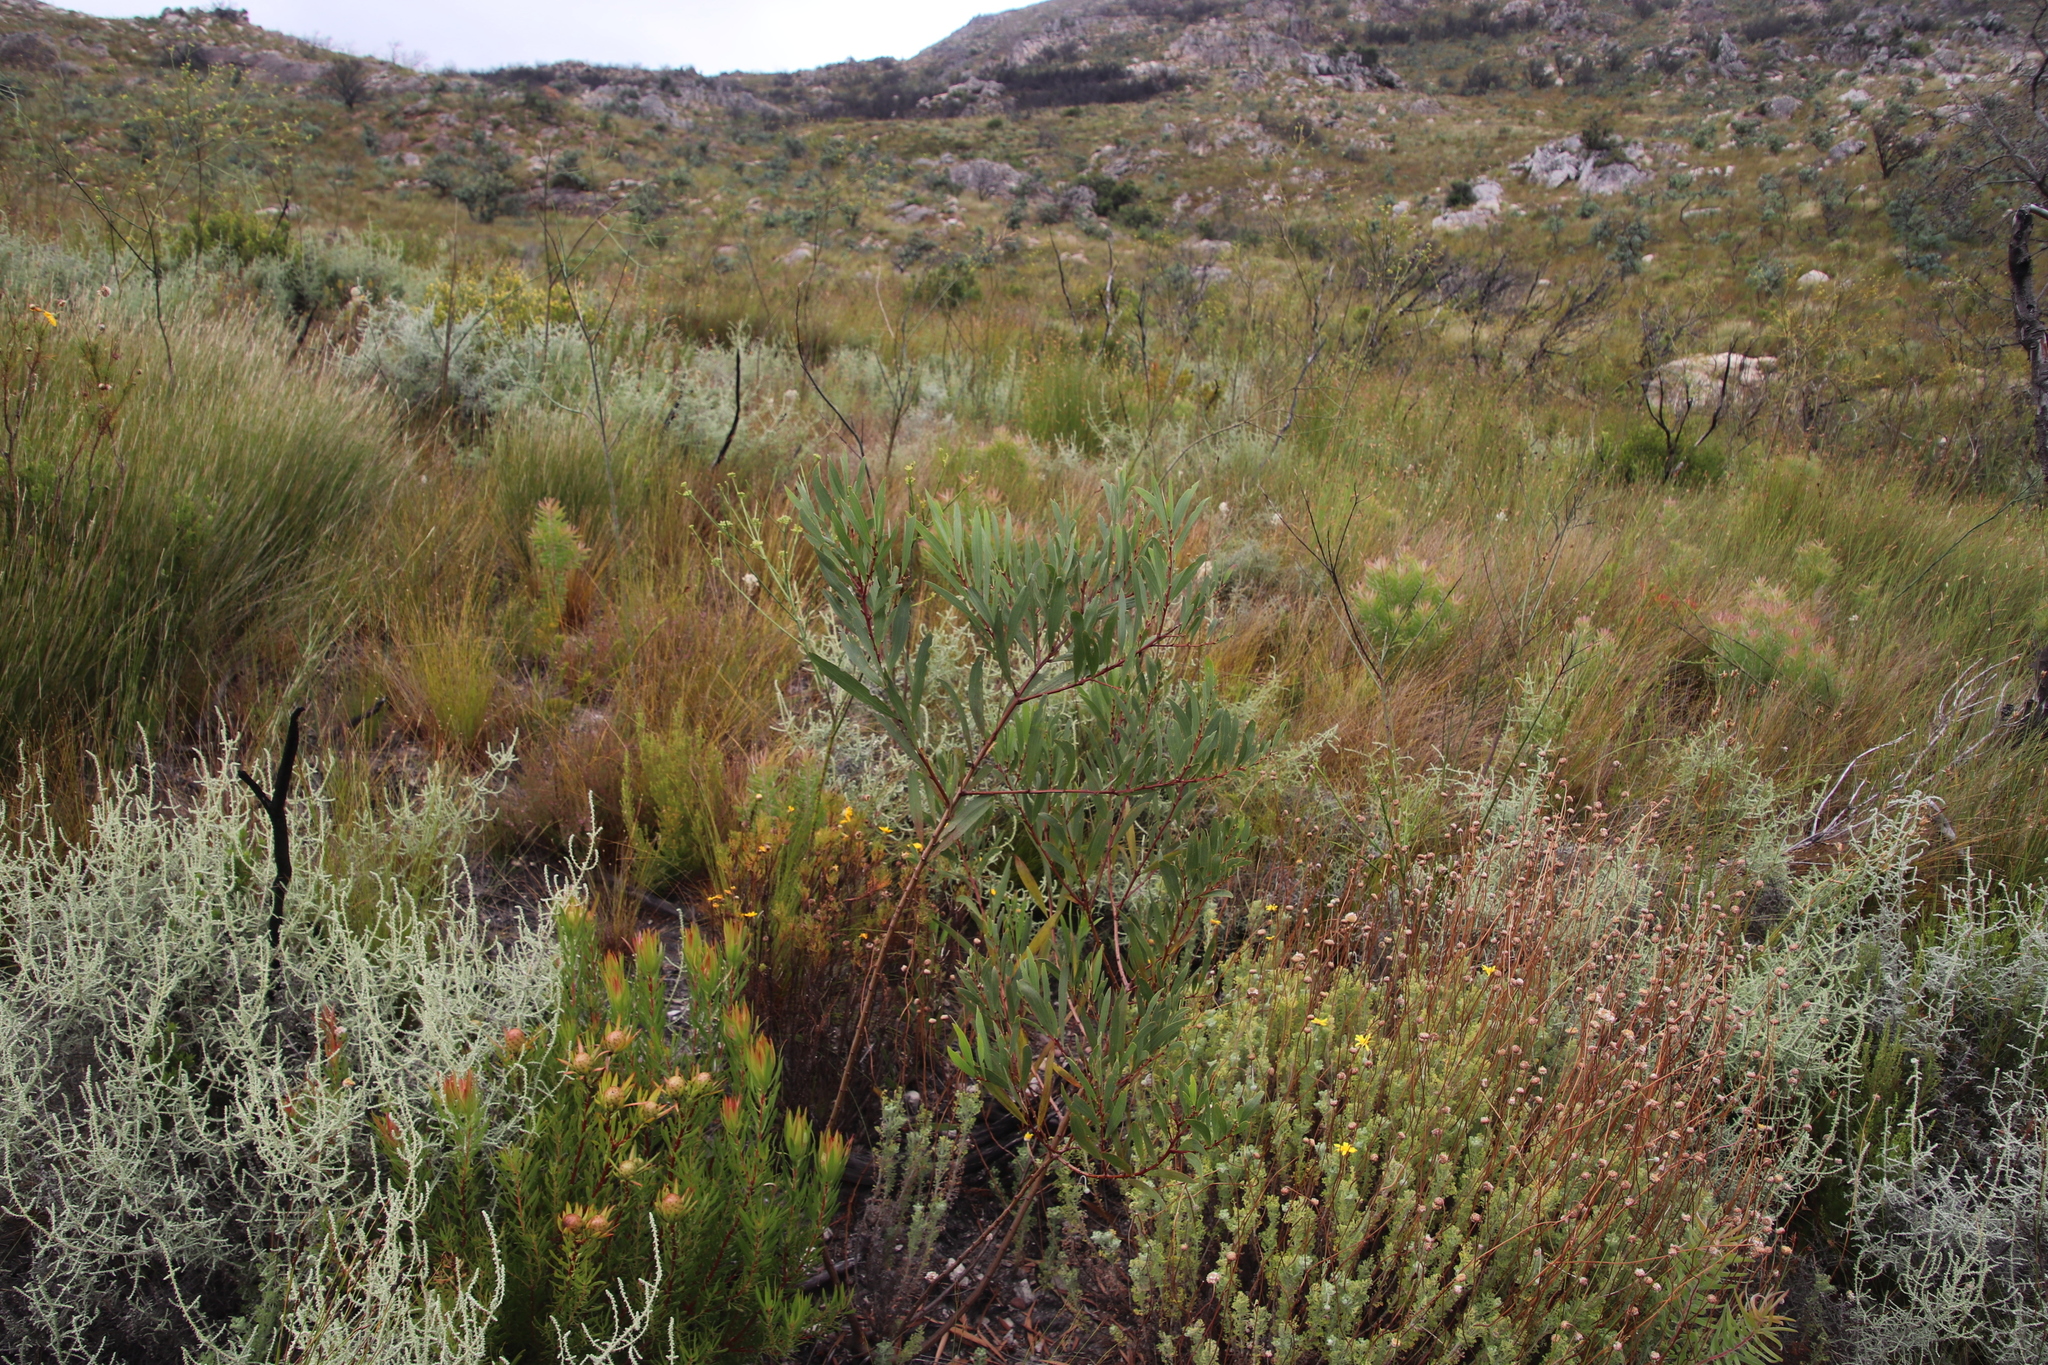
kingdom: Plantae
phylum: Tracheophyta
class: Magnoliopsida
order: Fabales
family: Fabaceae
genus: Acacia
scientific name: Acacia longifolia
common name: Sydney golden wattle
